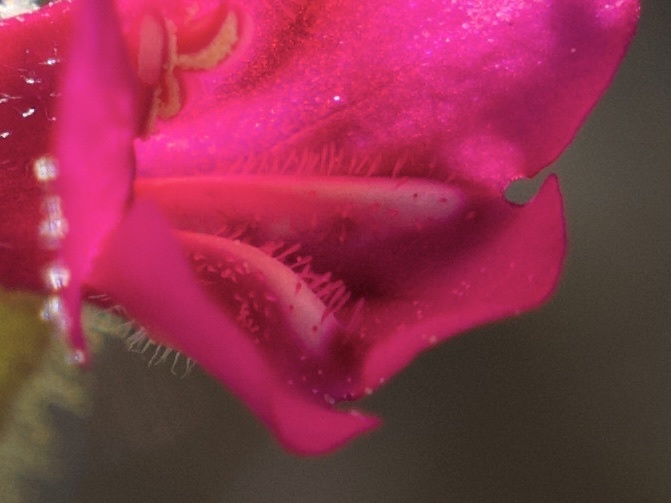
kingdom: Plantae
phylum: Tracheophyta
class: Magnoliopsida
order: Lamiales
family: Phrymaceae
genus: Diplacus
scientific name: Diplacus bolanderi
